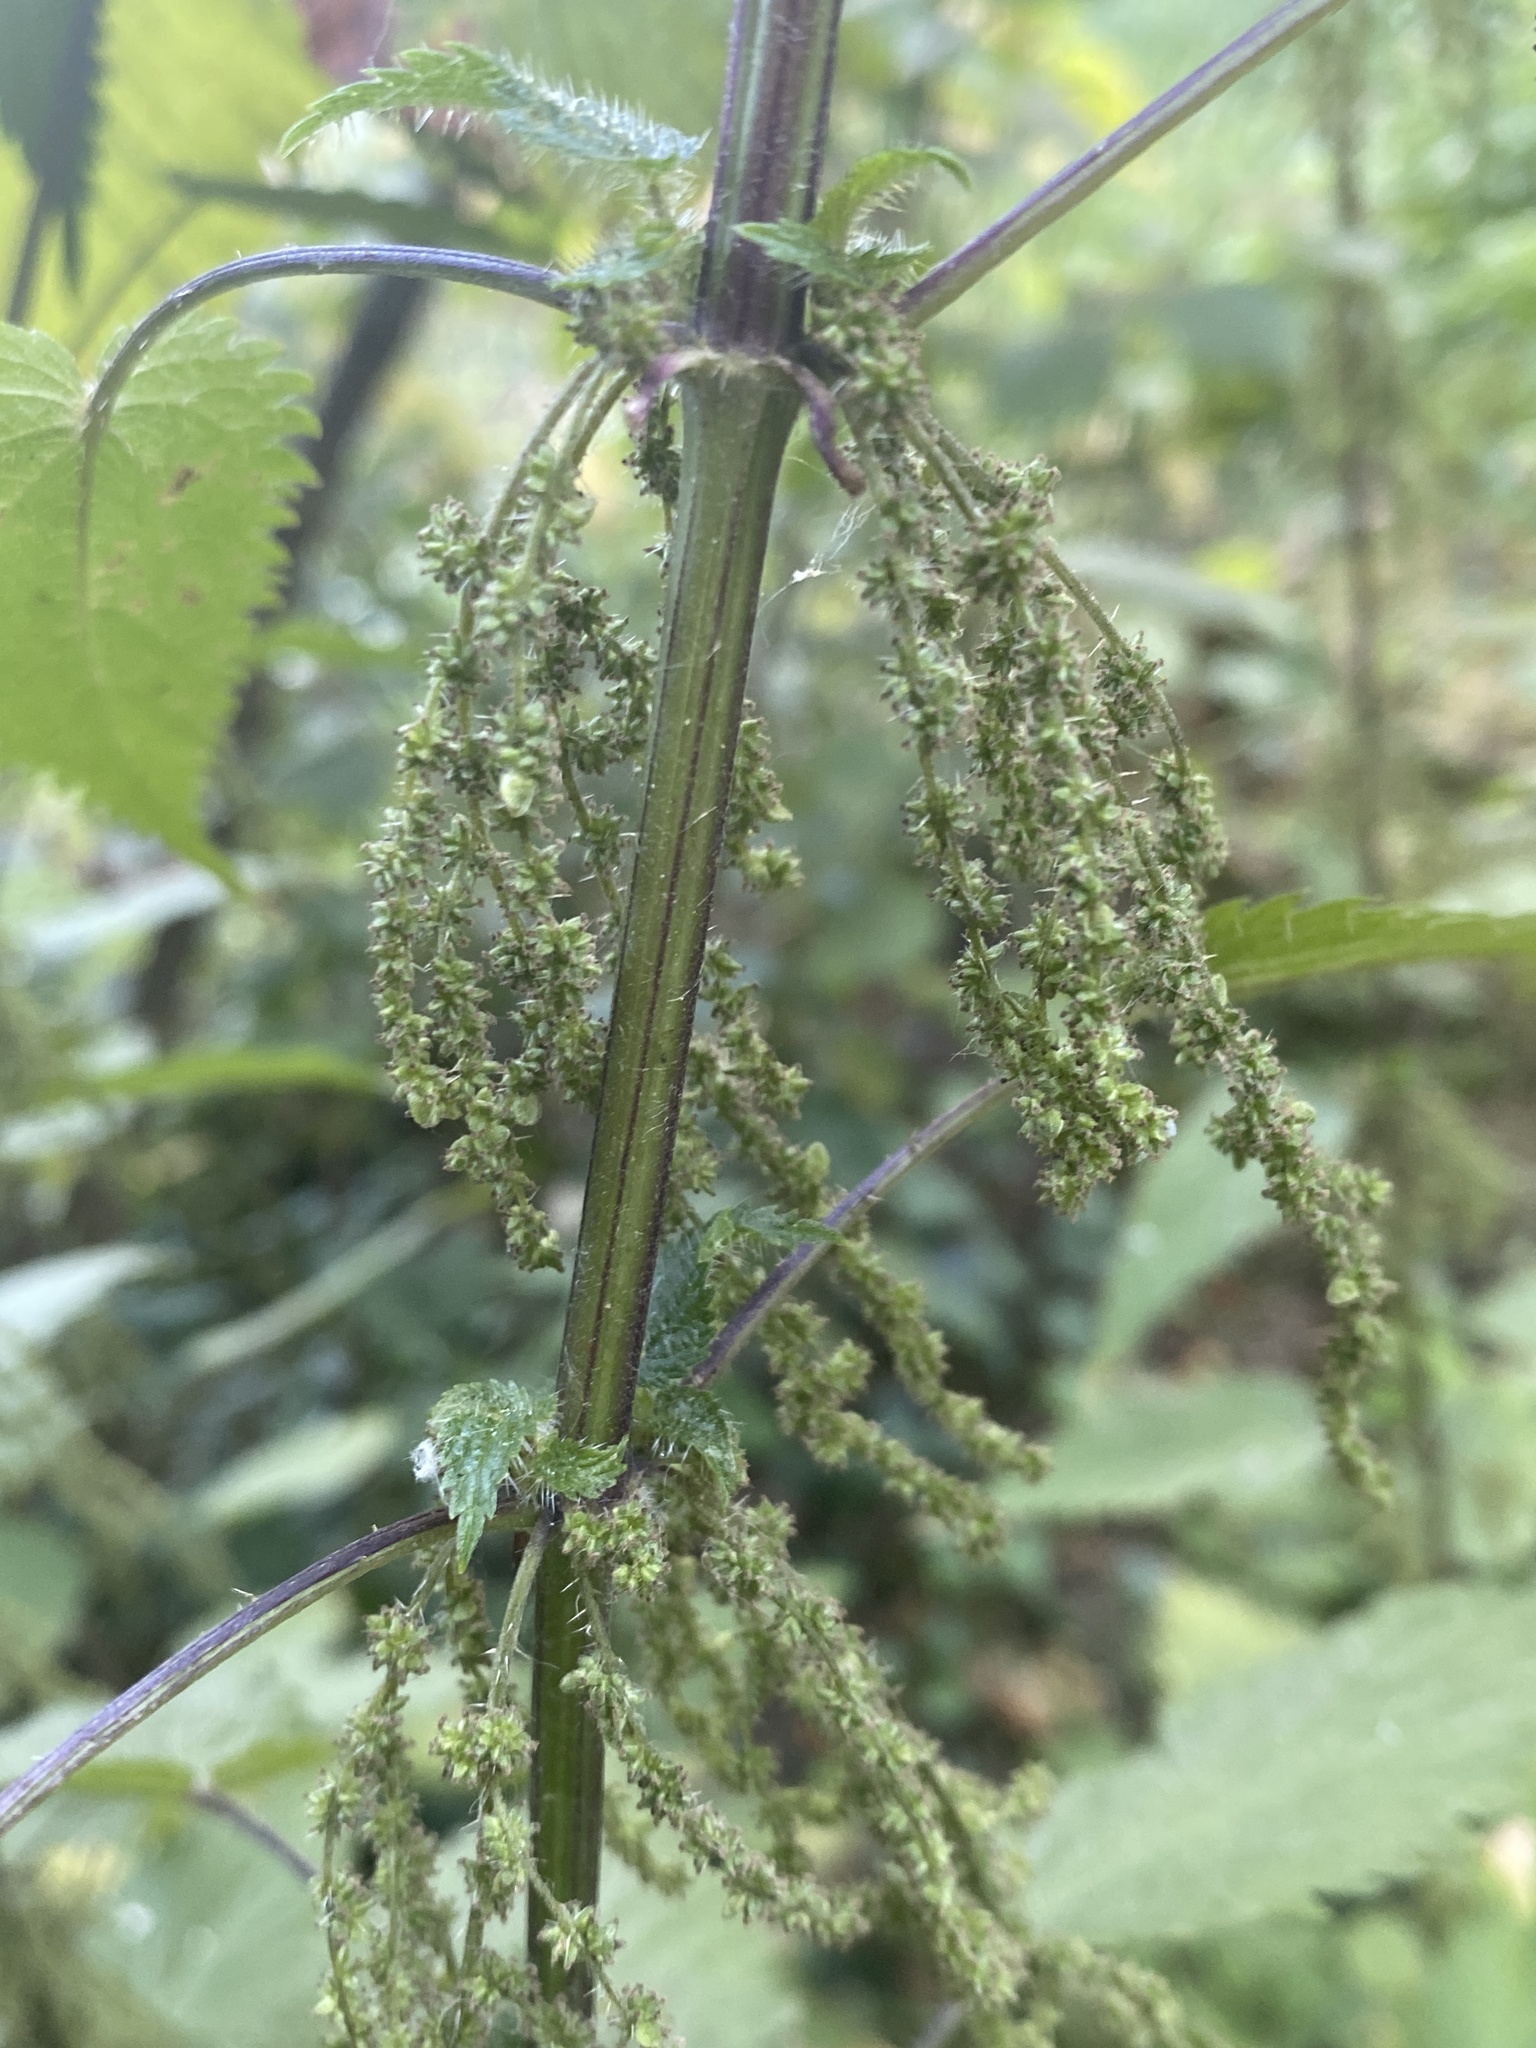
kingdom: Plantae
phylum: Tracheophyta
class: Magnoliopsida
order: Rosales
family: Urticaceae
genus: Urtica
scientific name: Urtica gracilis
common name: Slender stinging nettle
